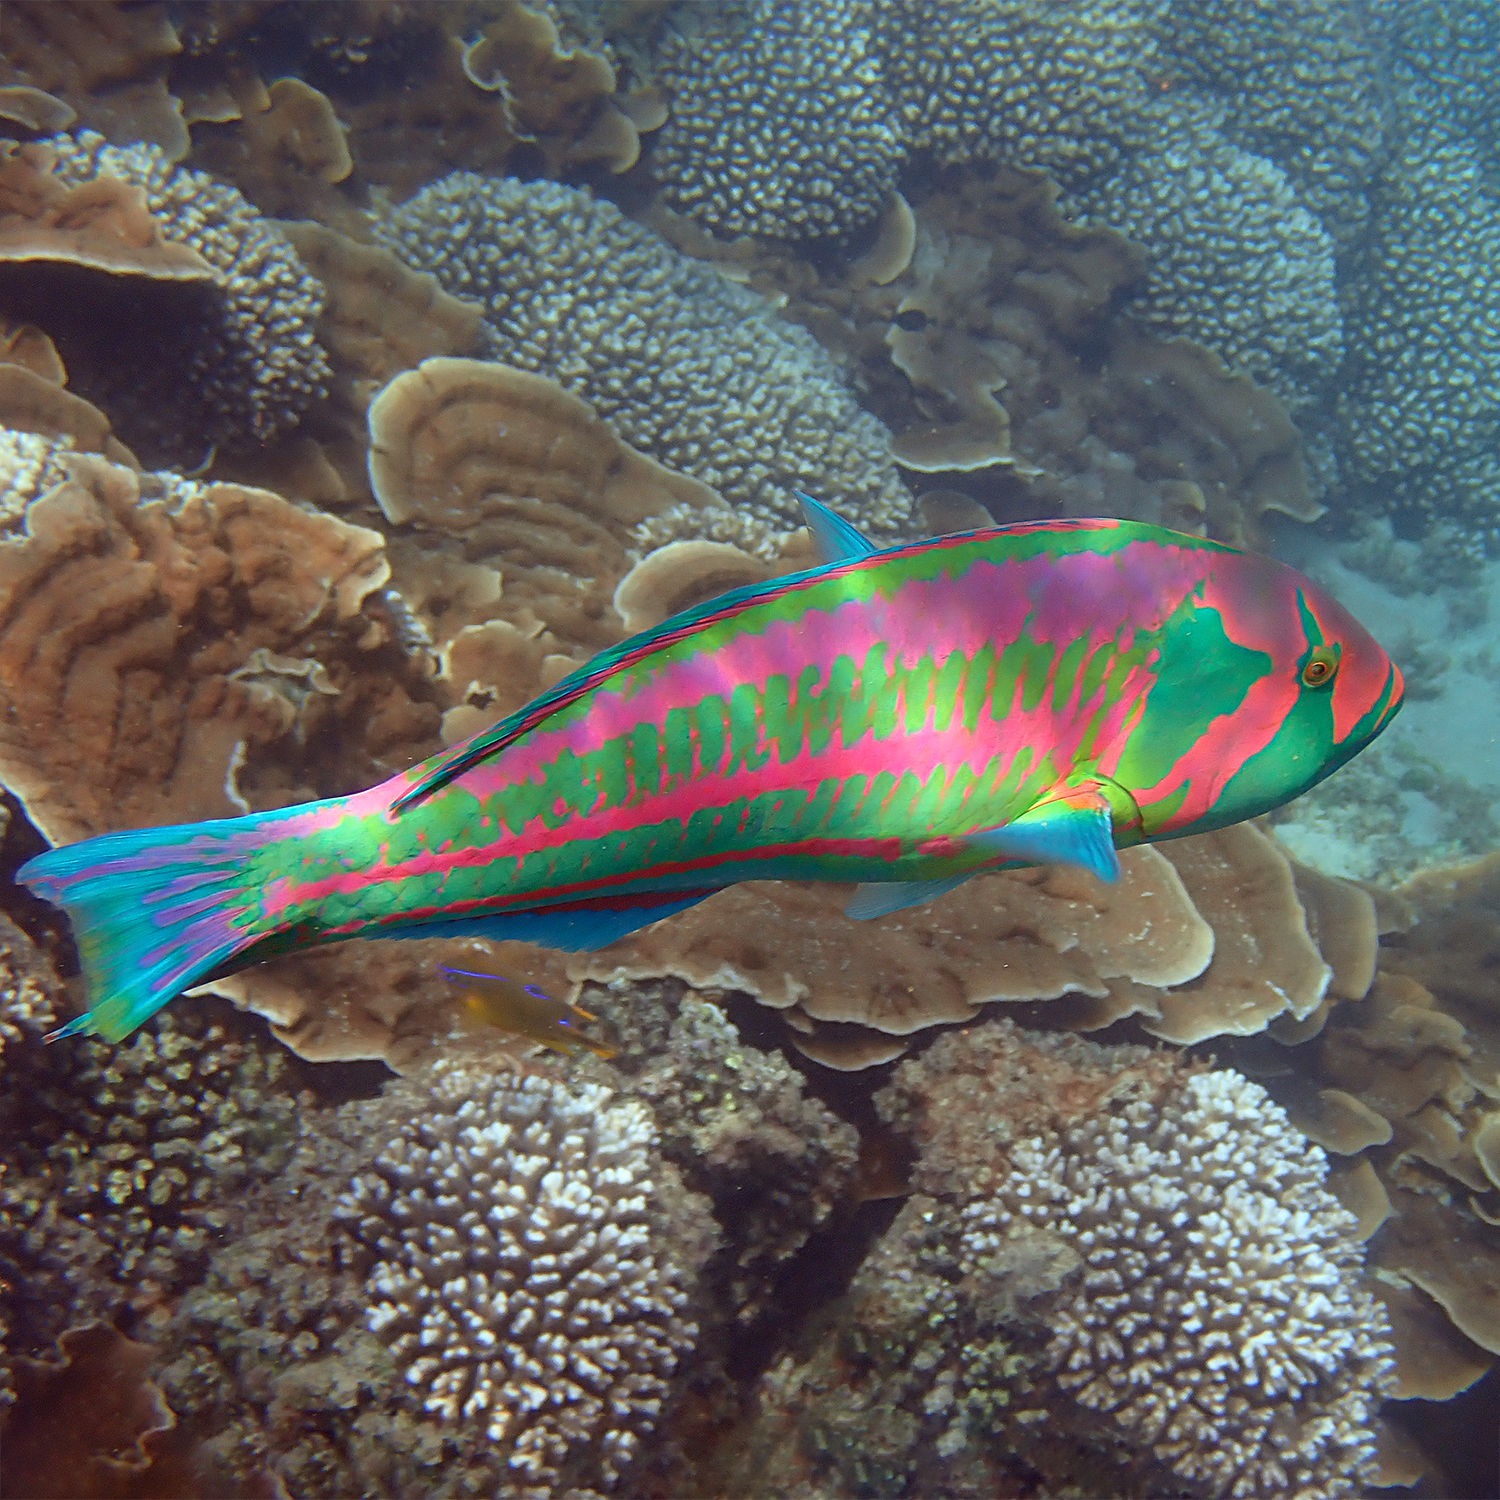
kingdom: Animalia
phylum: Chordata
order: Perciformes
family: Labridae
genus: Thalassoma
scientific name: Thalassoma purpureum
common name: Parrotfish
